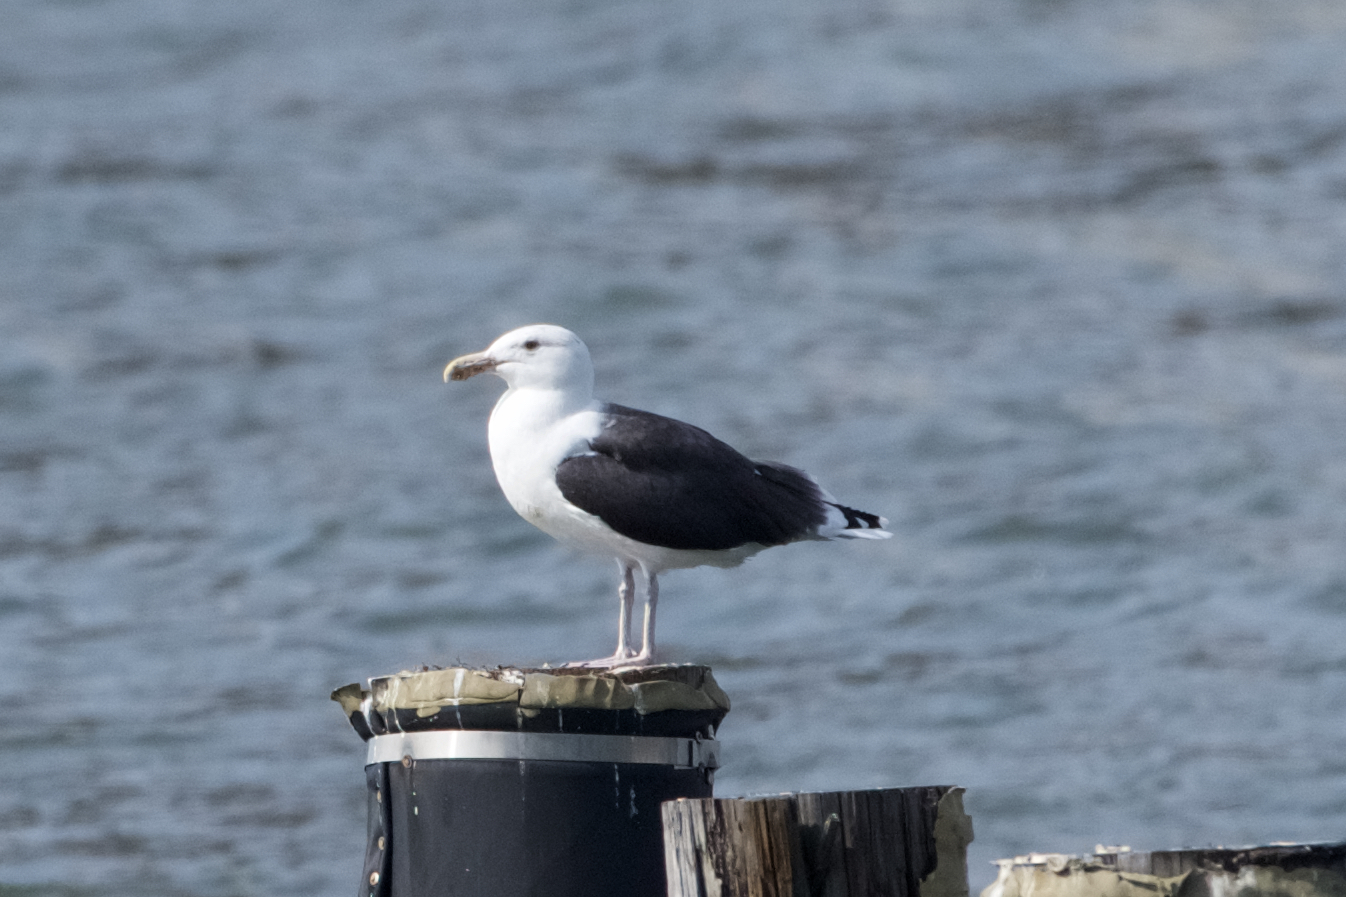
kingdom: Animalia
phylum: Chordata
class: Aves
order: Charadriiformes
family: Laridae
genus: Larus
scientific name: Larus marinus
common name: Great black-backed gull
